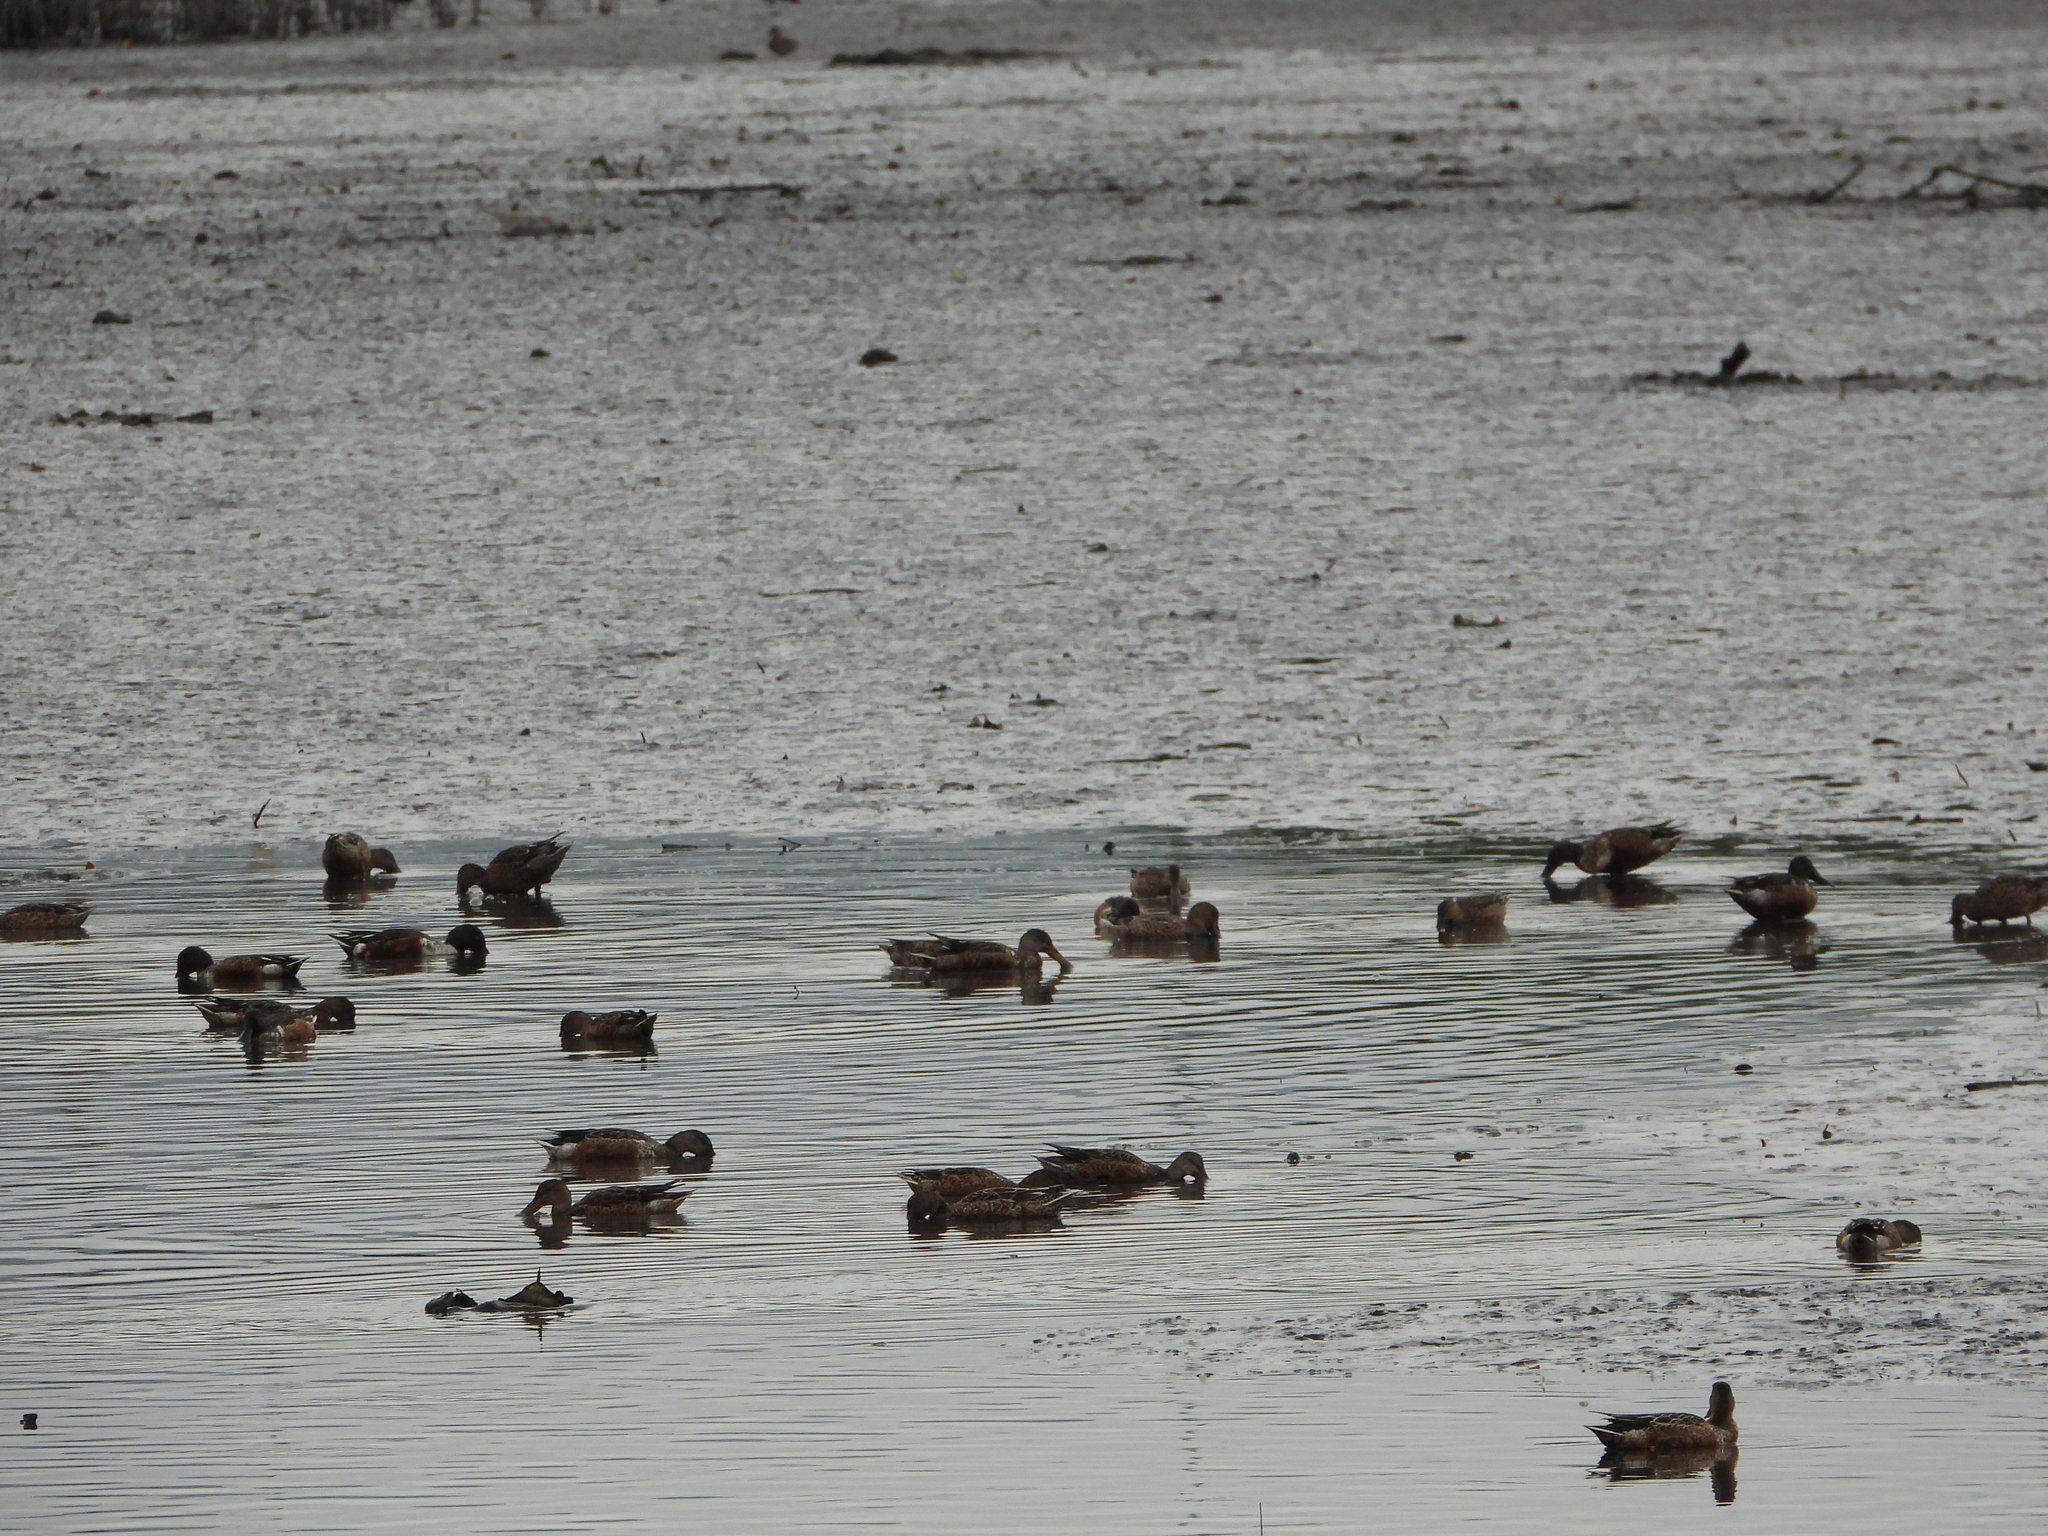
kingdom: Animalia
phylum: Chordata
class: Aves
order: Anseriformes
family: Anatidae
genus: Spatula
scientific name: Spatula clypeata
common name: Northern shoveler
